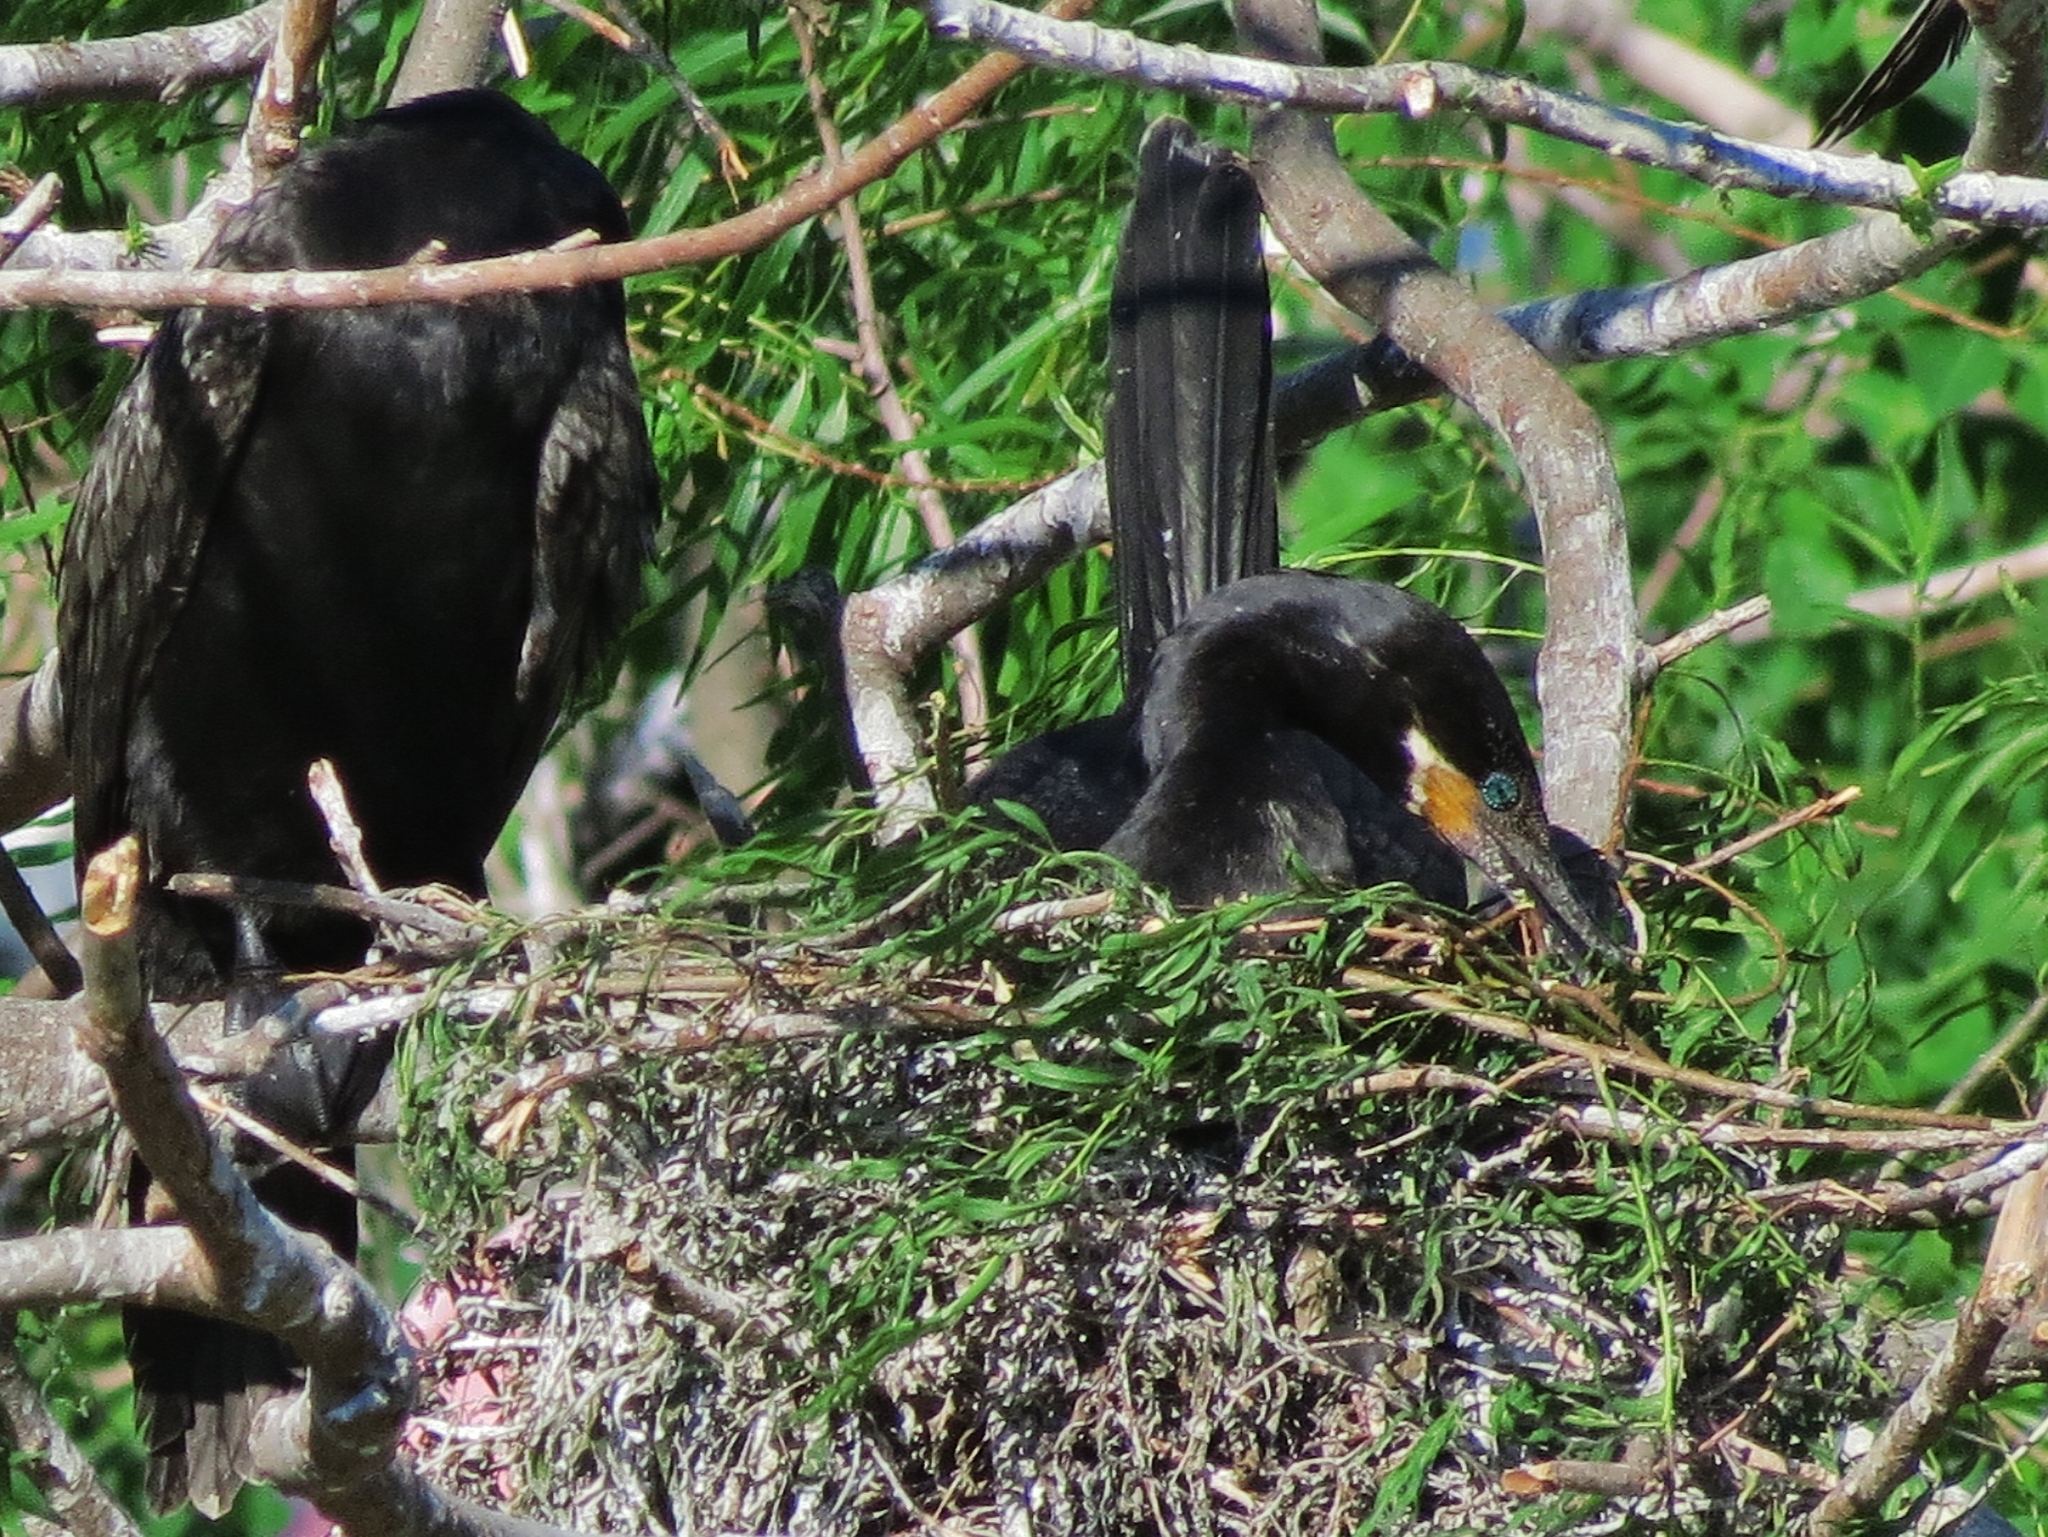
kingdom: Animalia
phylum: Chordata
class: Aves
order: Suliformes
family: Phalacrocoracidae
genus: Phalacrocorax
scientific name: Phalacrocorax brasilianus
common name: Neotropic cormorant
